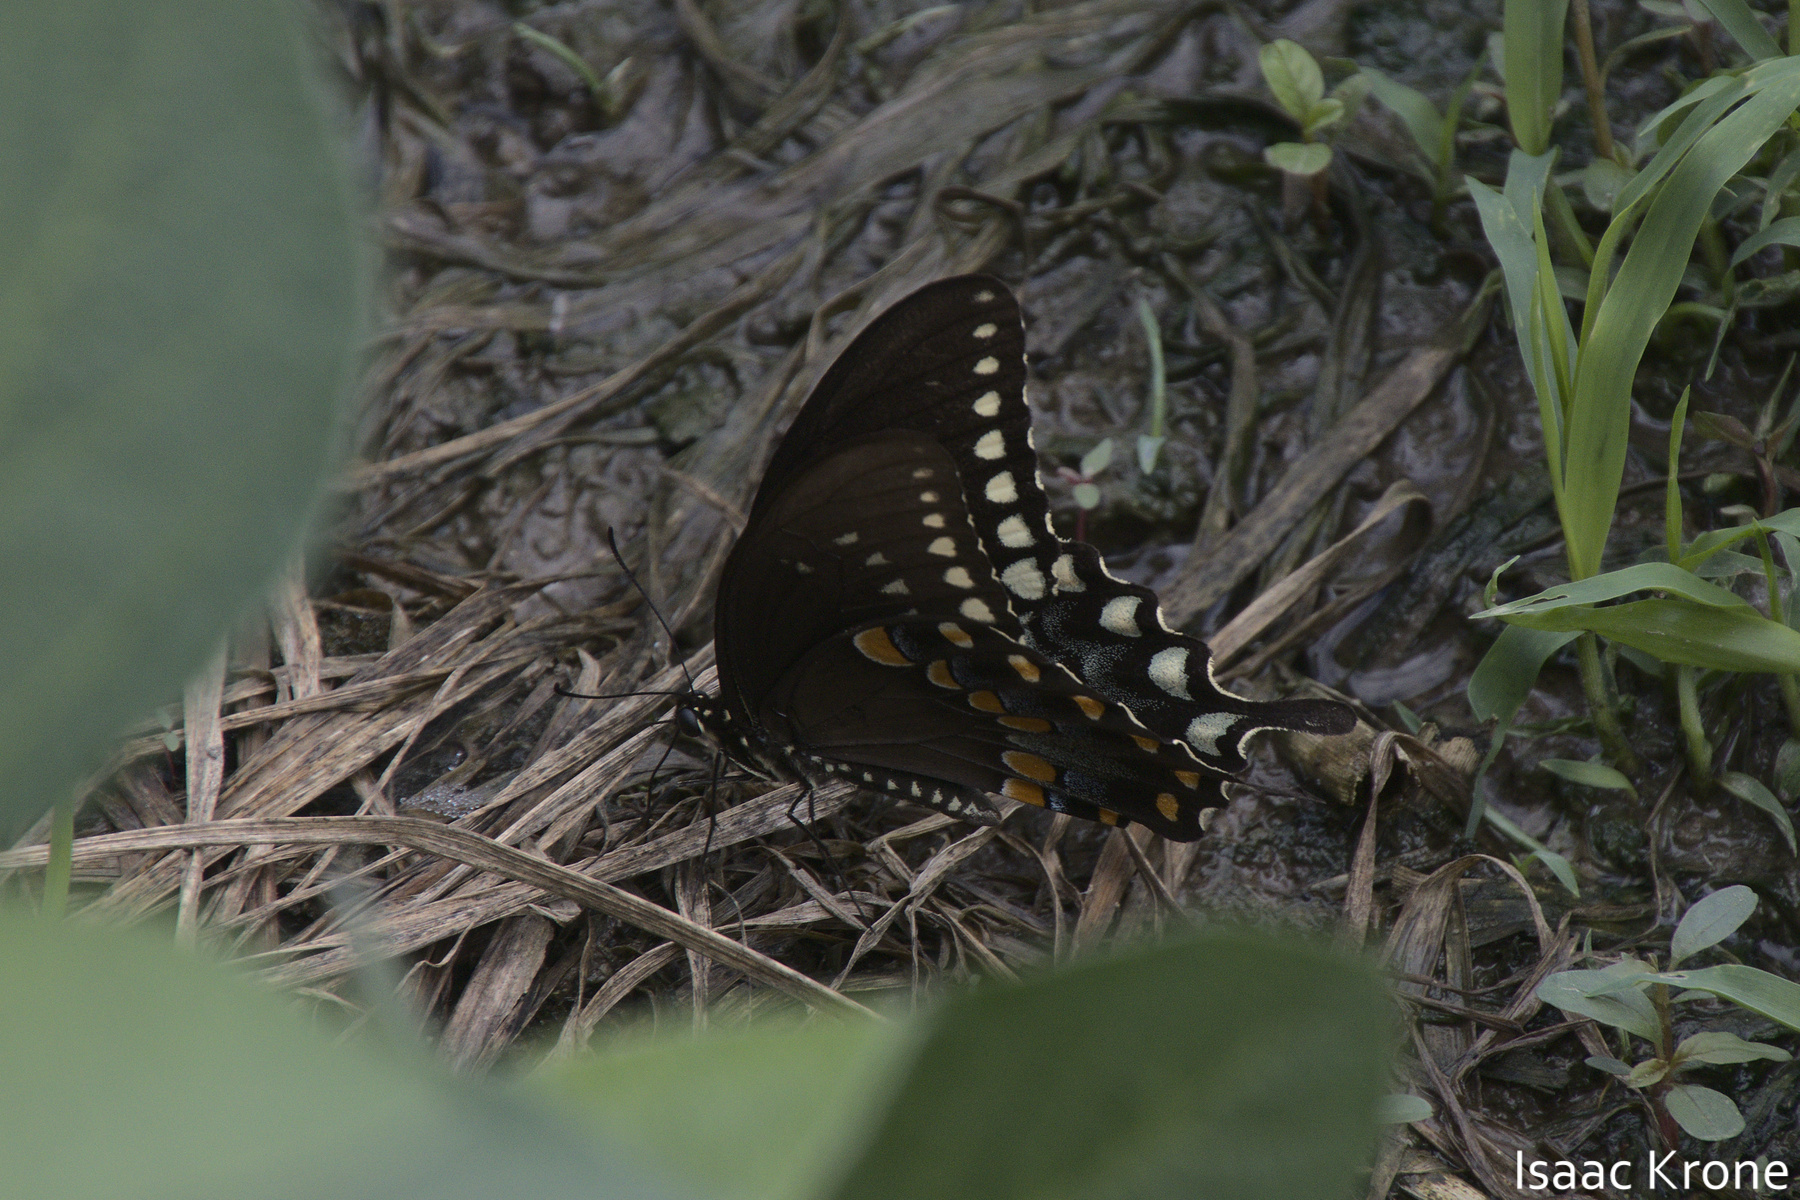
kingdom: Animalia
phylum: Arthropoda
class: Insecta
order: Lepidoptera
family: Papilionidae
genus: Papilio
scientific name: Papilio troilus
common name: Spicebush swallowtail
